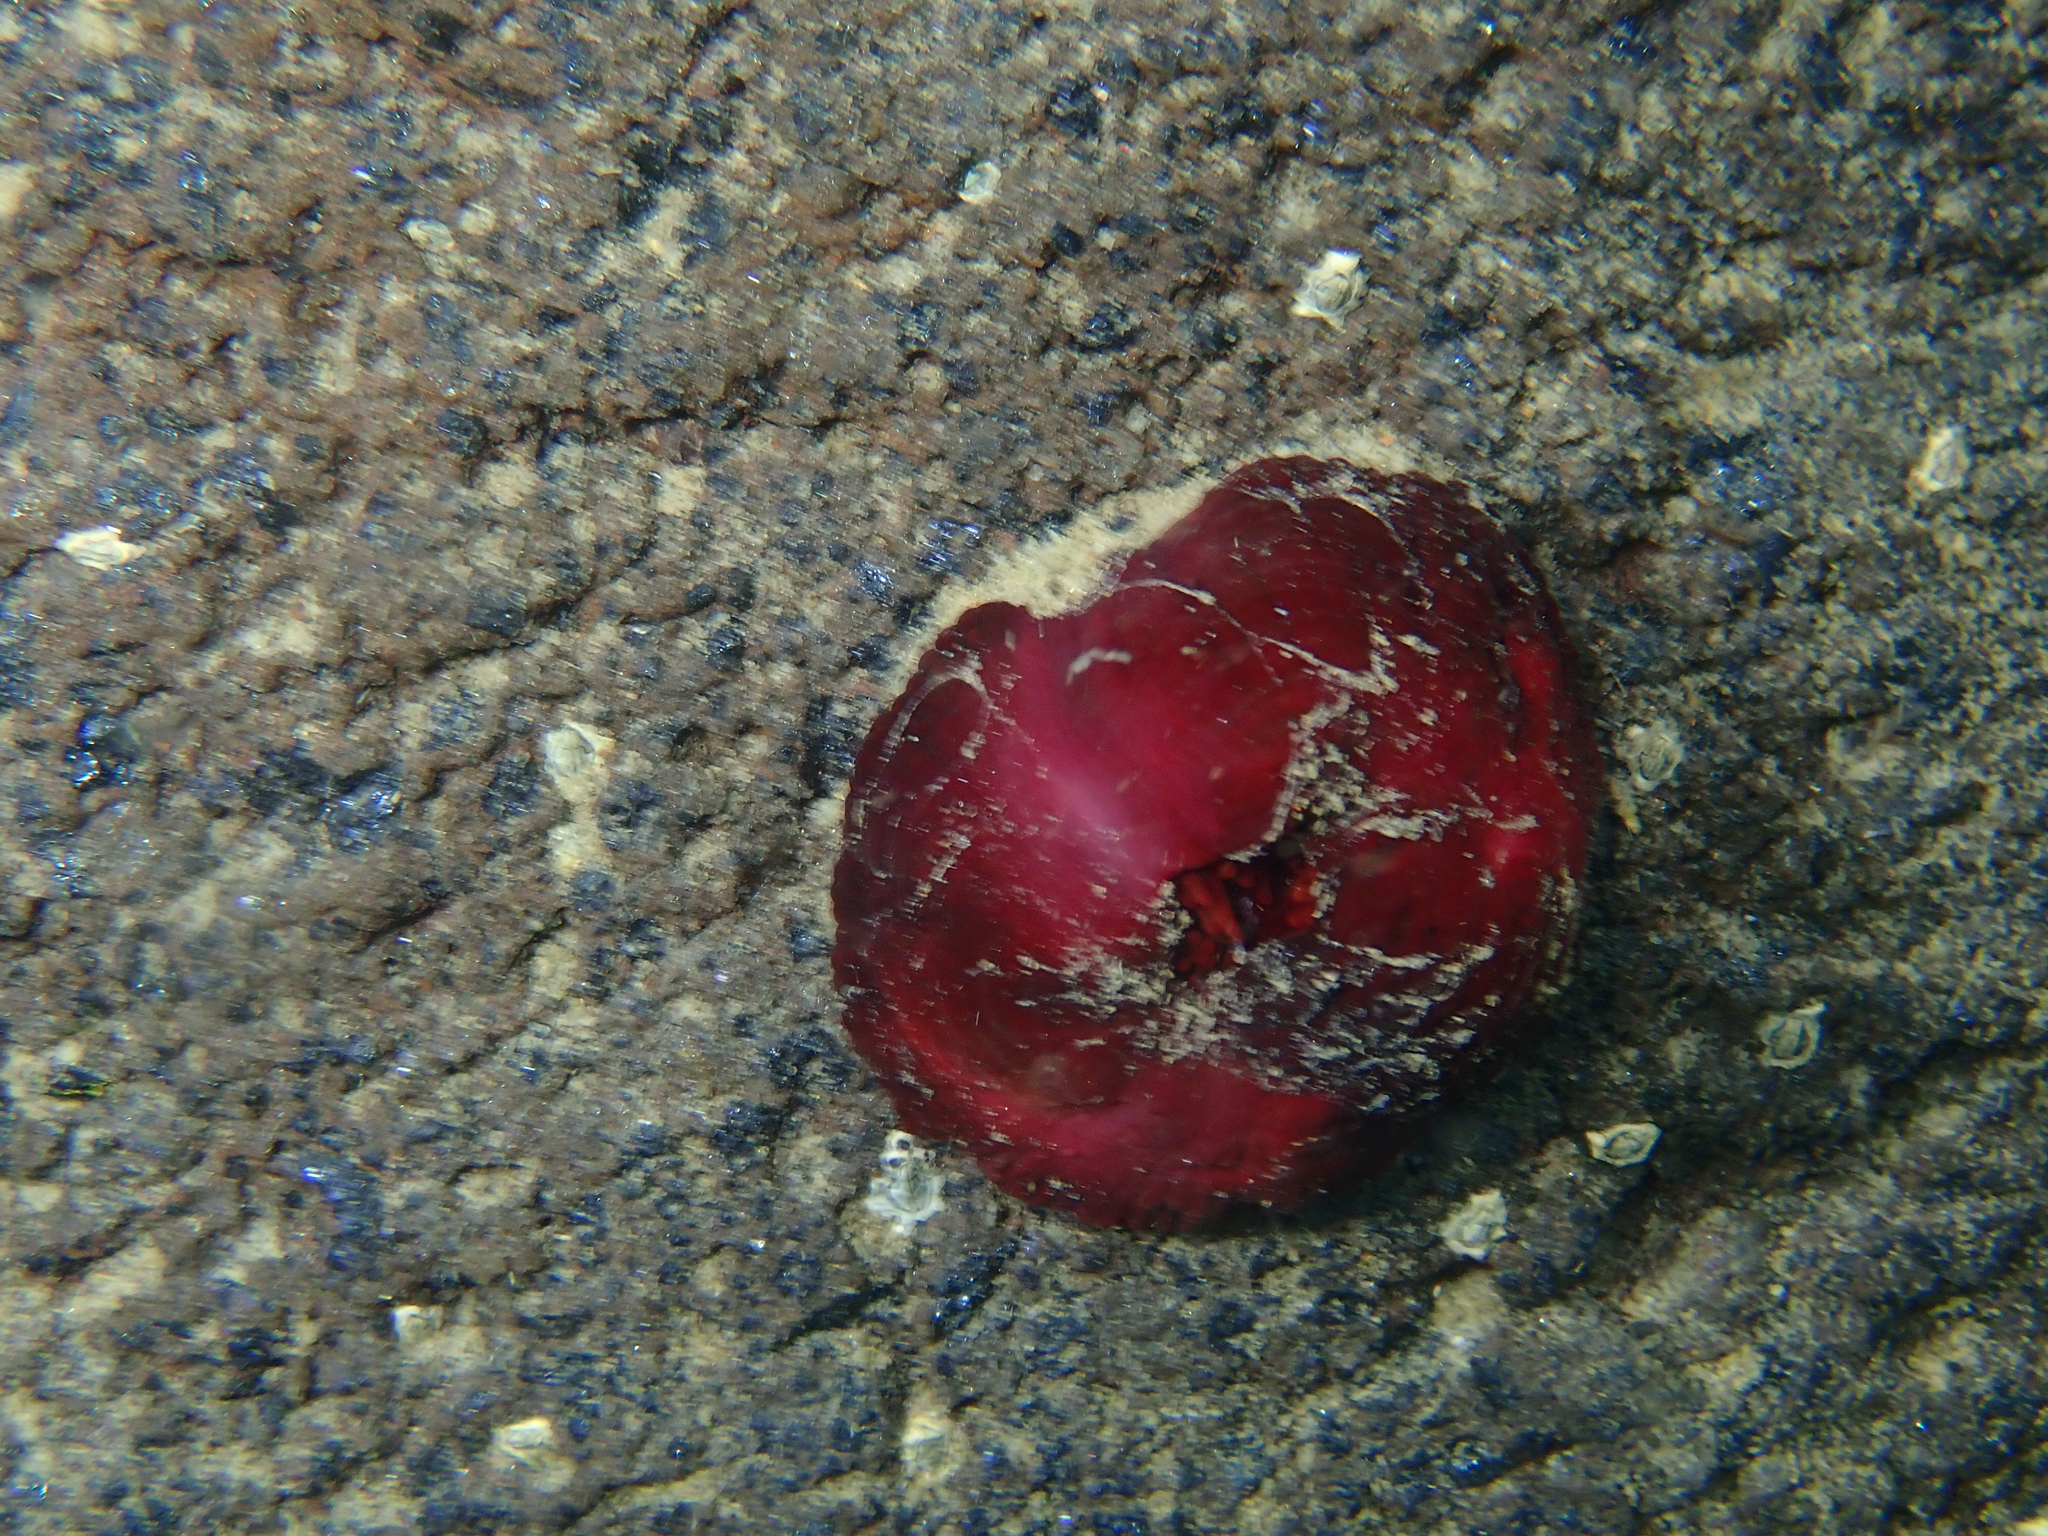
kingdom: Animalia
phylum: Cnidaria
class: Anthozoa
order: Actiniaria
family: Actiniidae
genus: Actinia
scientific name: Actinia tenebrosa
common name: Waratah anemone
